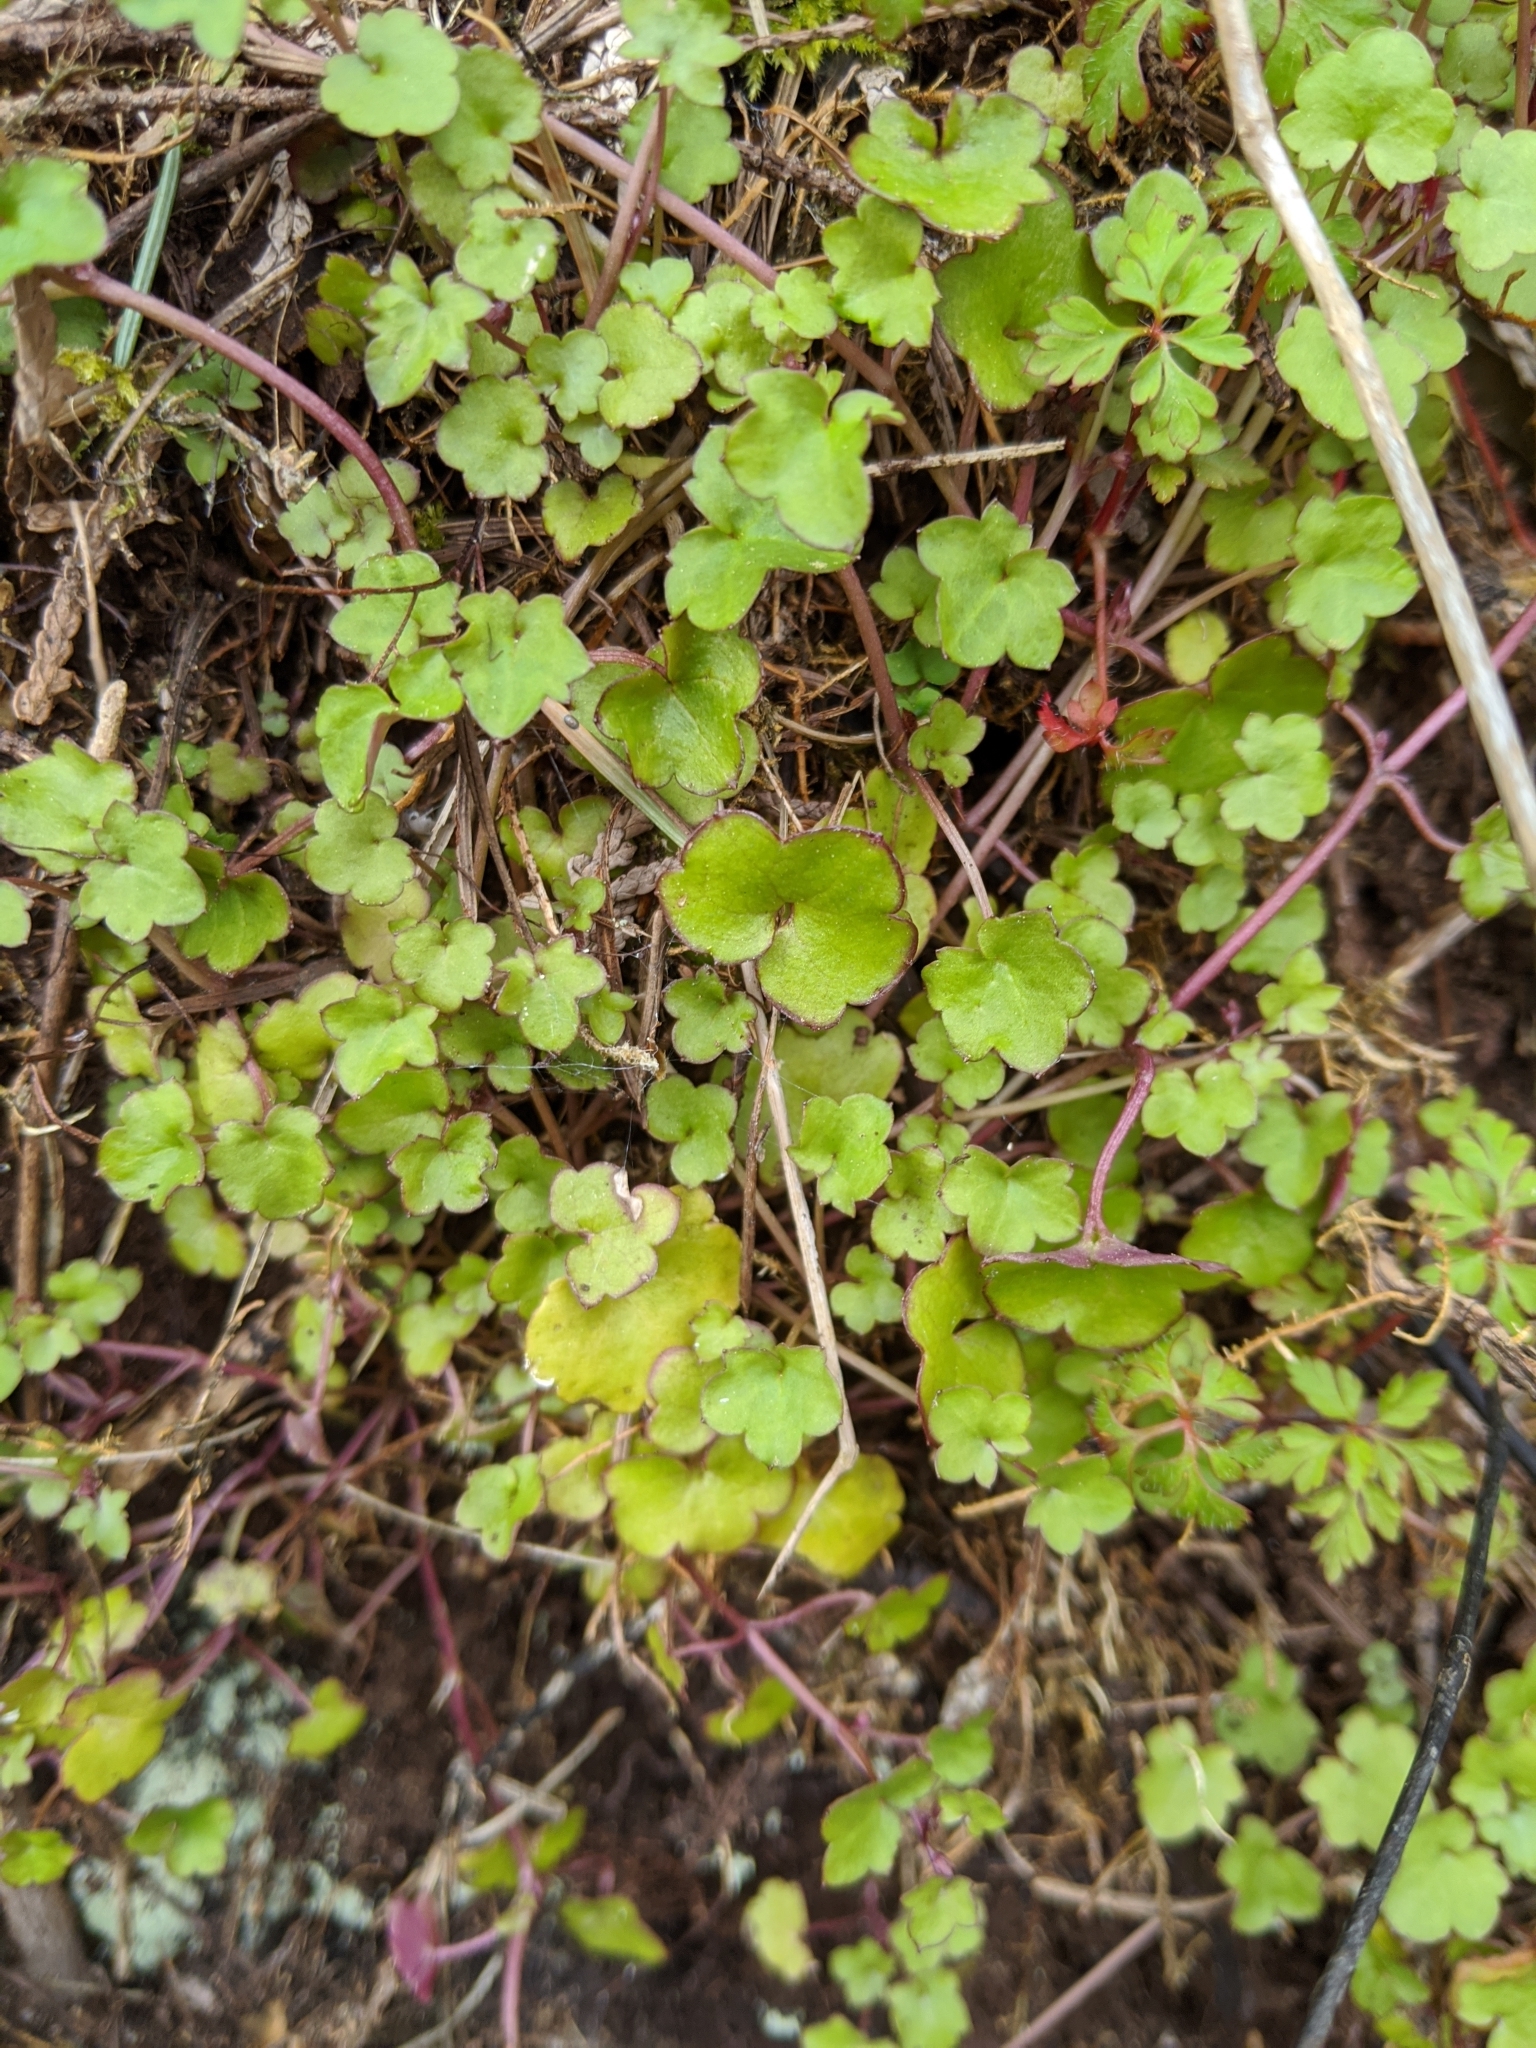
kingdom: Plantae
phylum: Tracheophyta
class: Magnoliopsida
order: Lamiales
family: Plantaginaceae
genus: Cymbalaria
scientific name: Cymbalaria muralis
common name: Ivy-leaved toadflax
